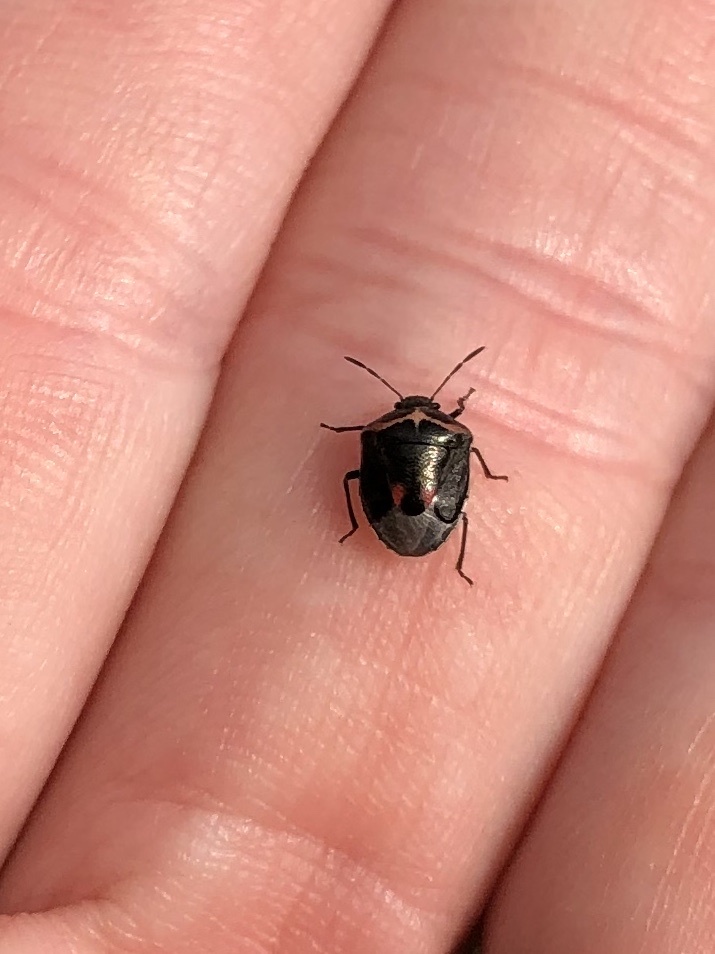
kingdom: Animalia
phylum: Arthropoda
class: Insecta
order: Hemiptera
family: Pentatomidae
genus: Cosmopepla
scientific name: Cosmopepla lintneriana
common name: Twice-stabbed stink bug
